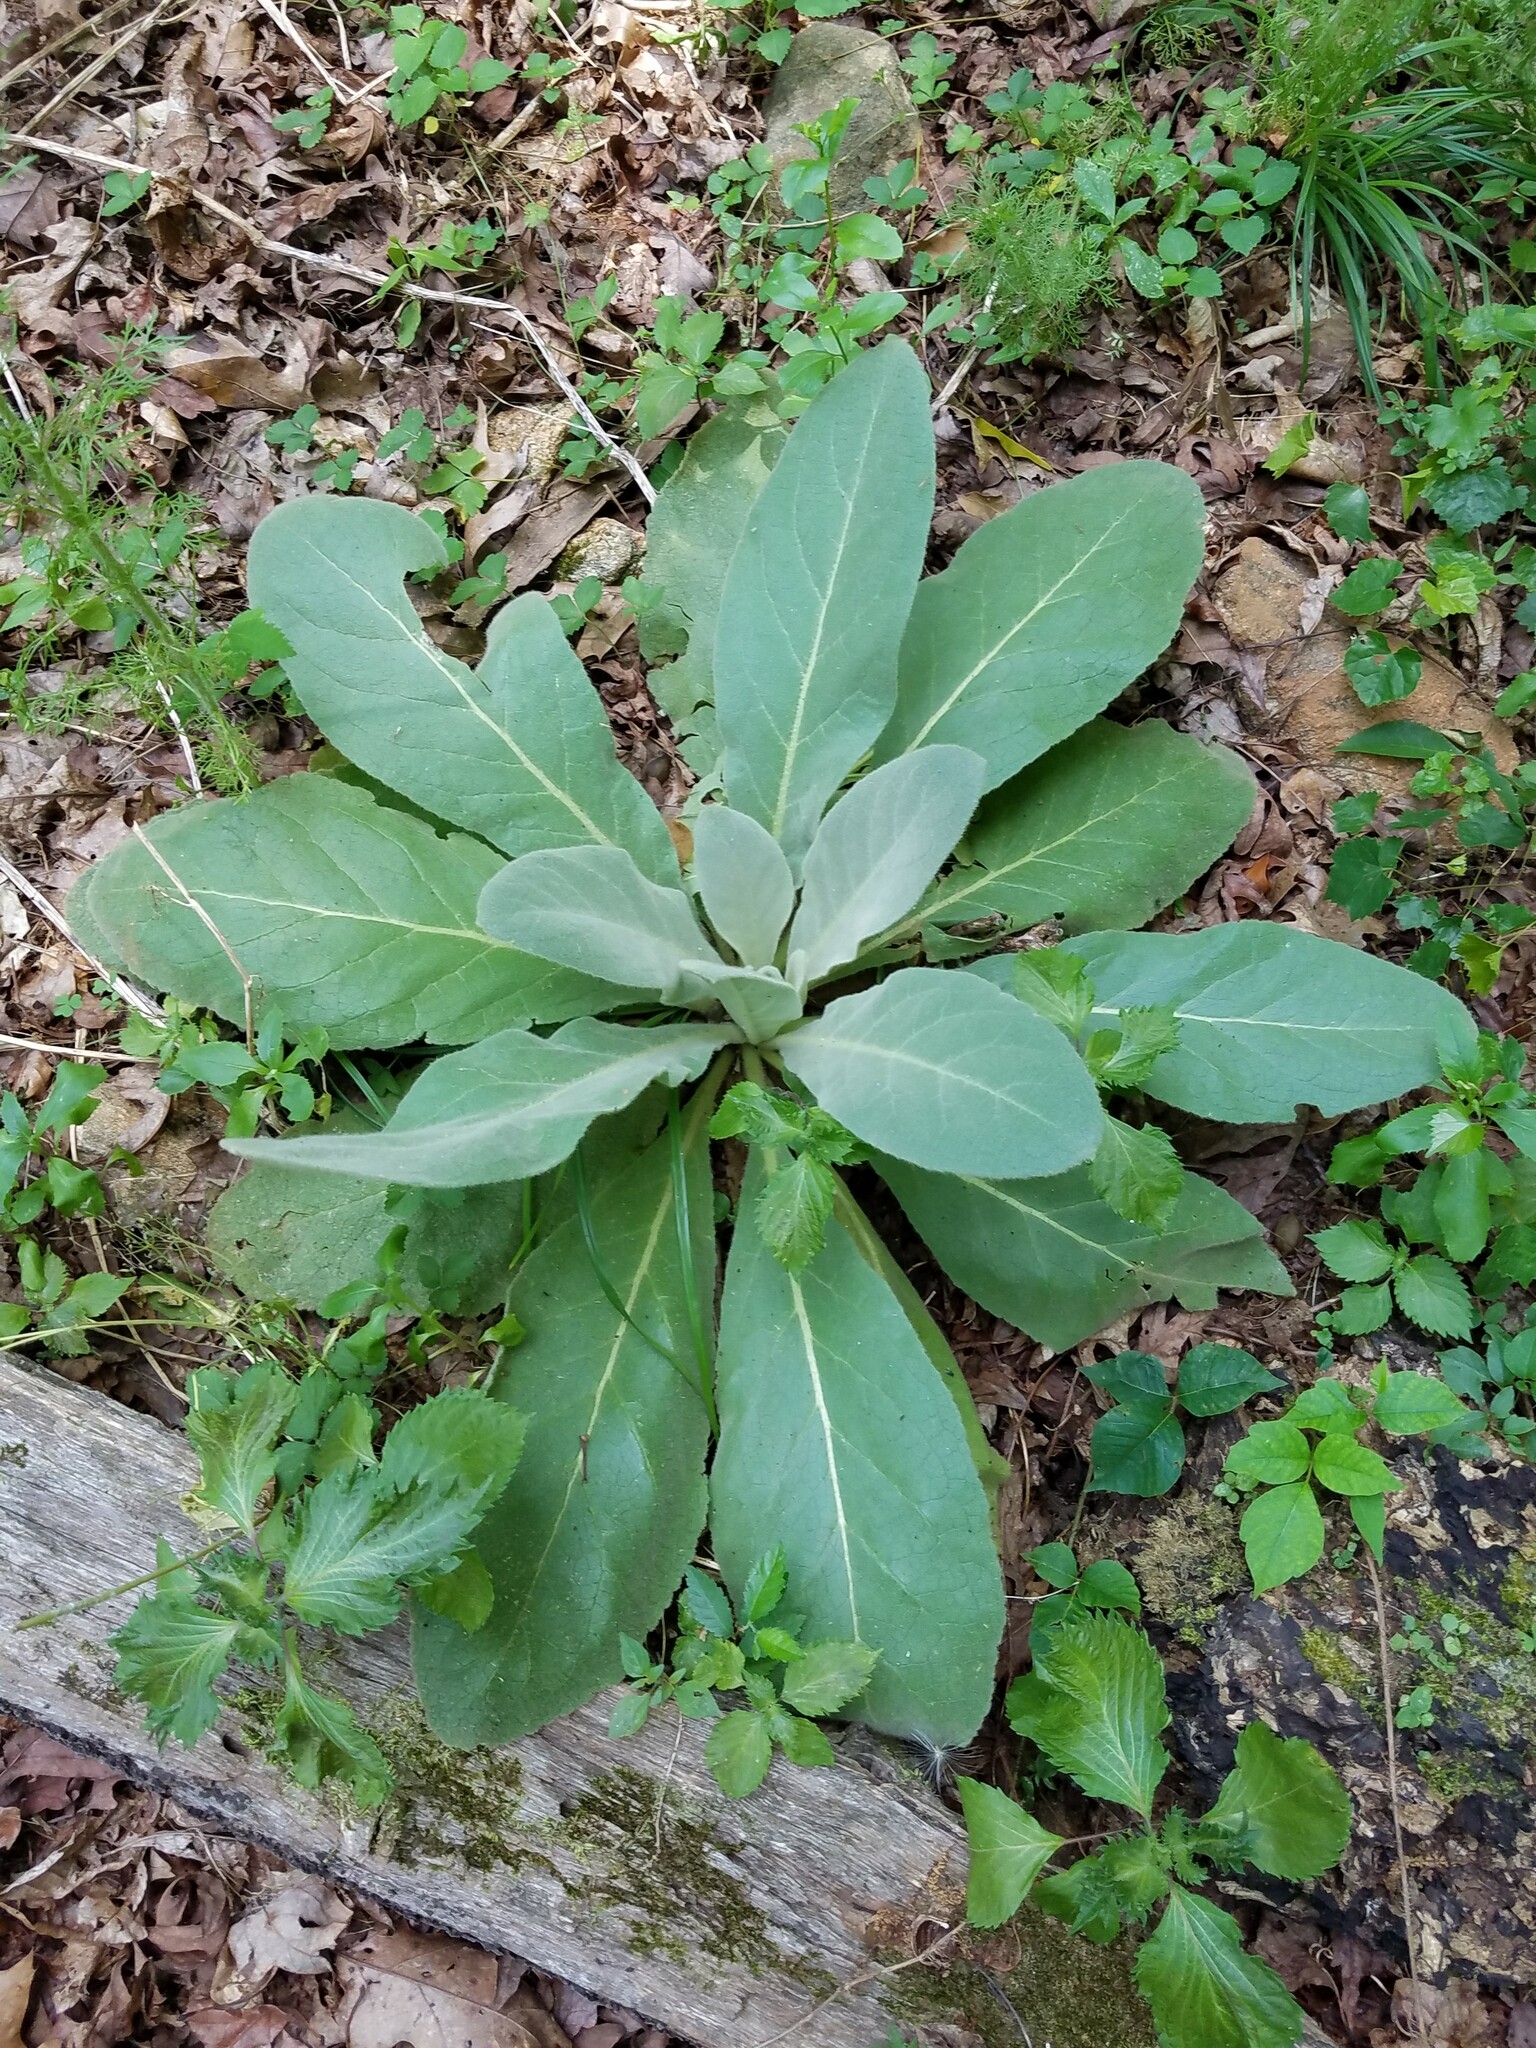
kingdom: Plantae
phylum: Tracheophyta
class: Magnoliopsida
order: Lamiales
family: Scrophulariaceae
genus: Verbascum
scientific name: Verbascum thapsus
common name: Common mullein
